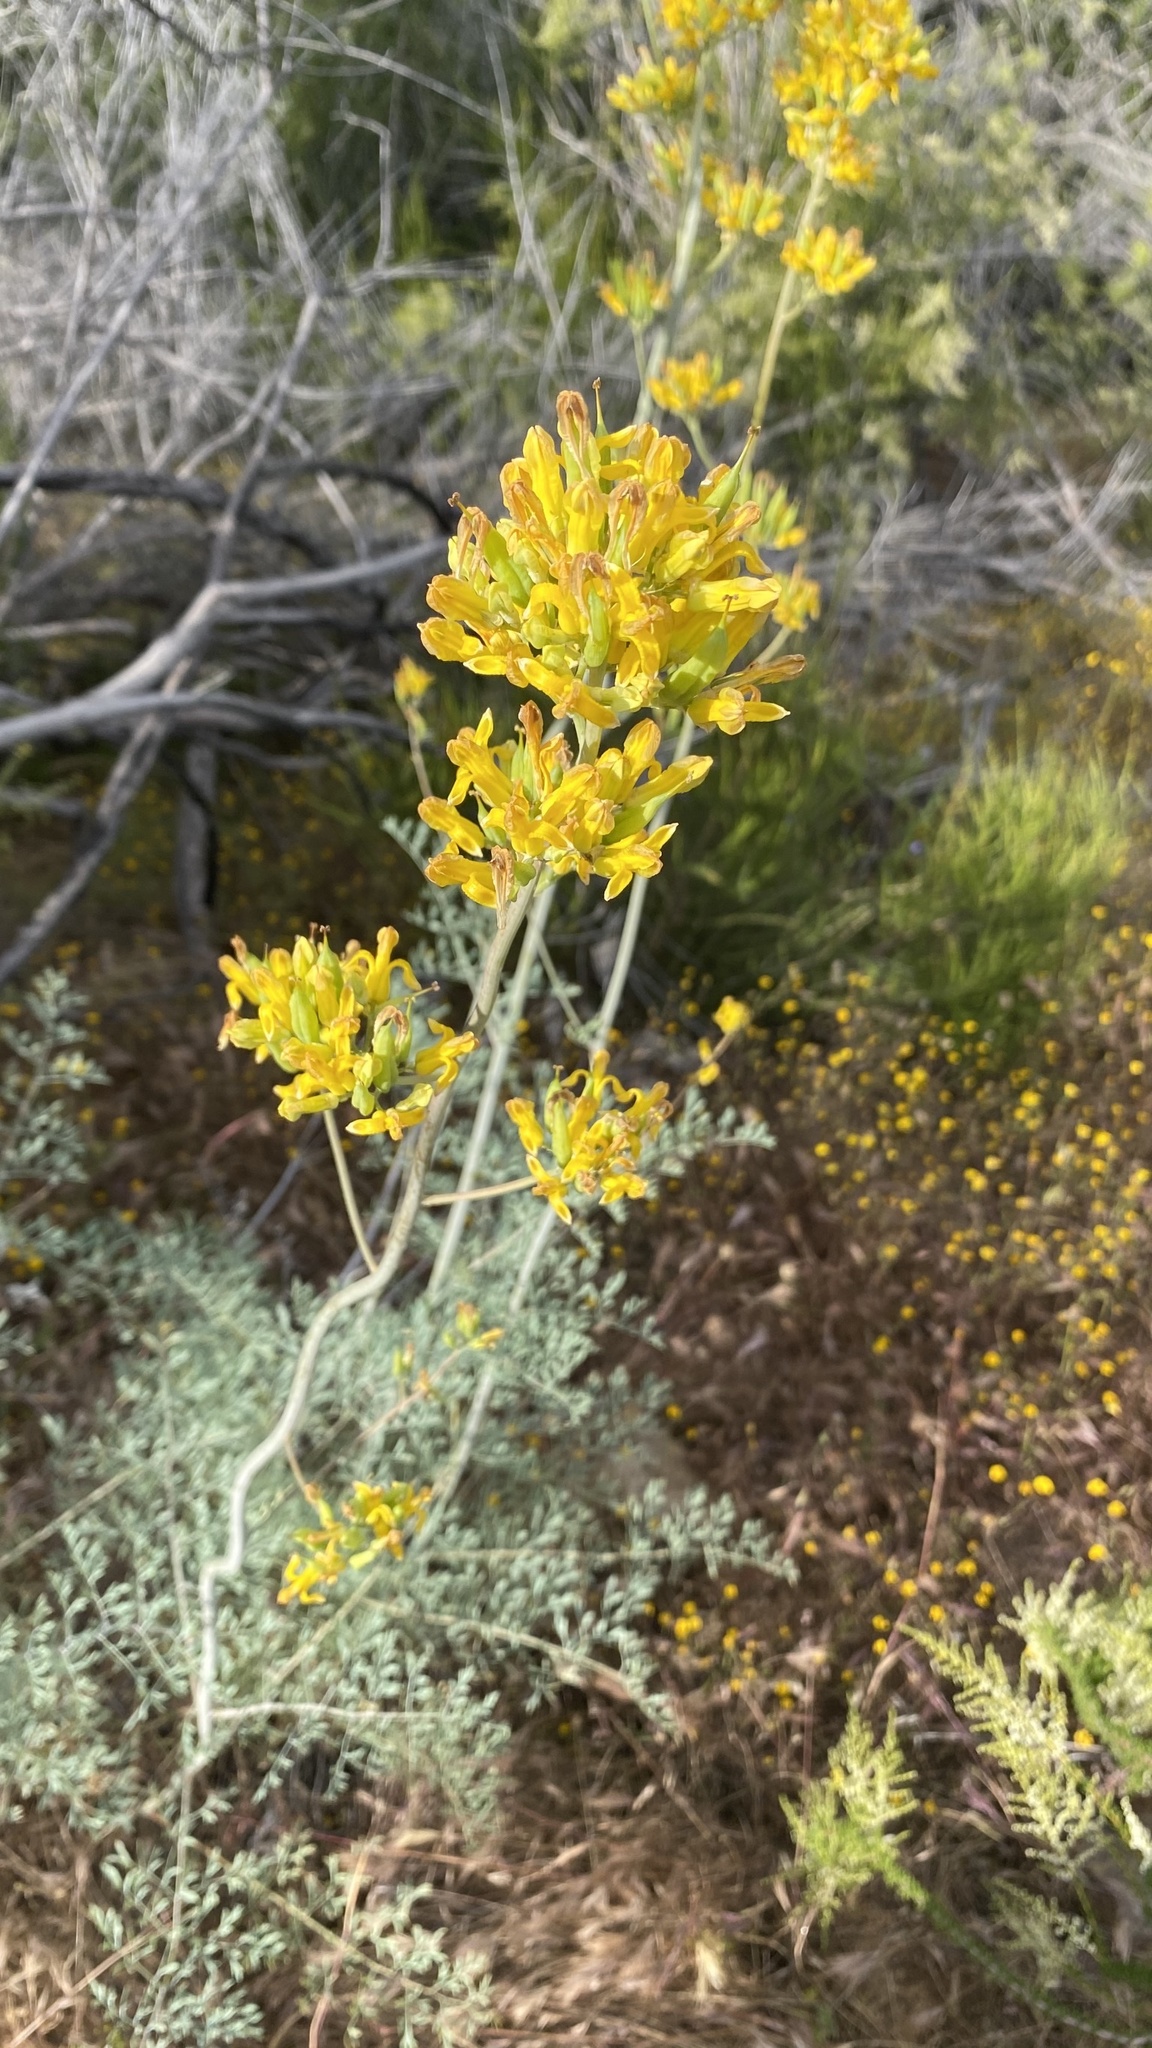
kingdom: Plantae
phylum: Tracheophyta
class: Magnoliopsida
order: Ranunculales
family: Papaveraceae
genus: Ehrendorferia
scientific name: Ehrendorferia chrysantha
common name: Golden eardrops
